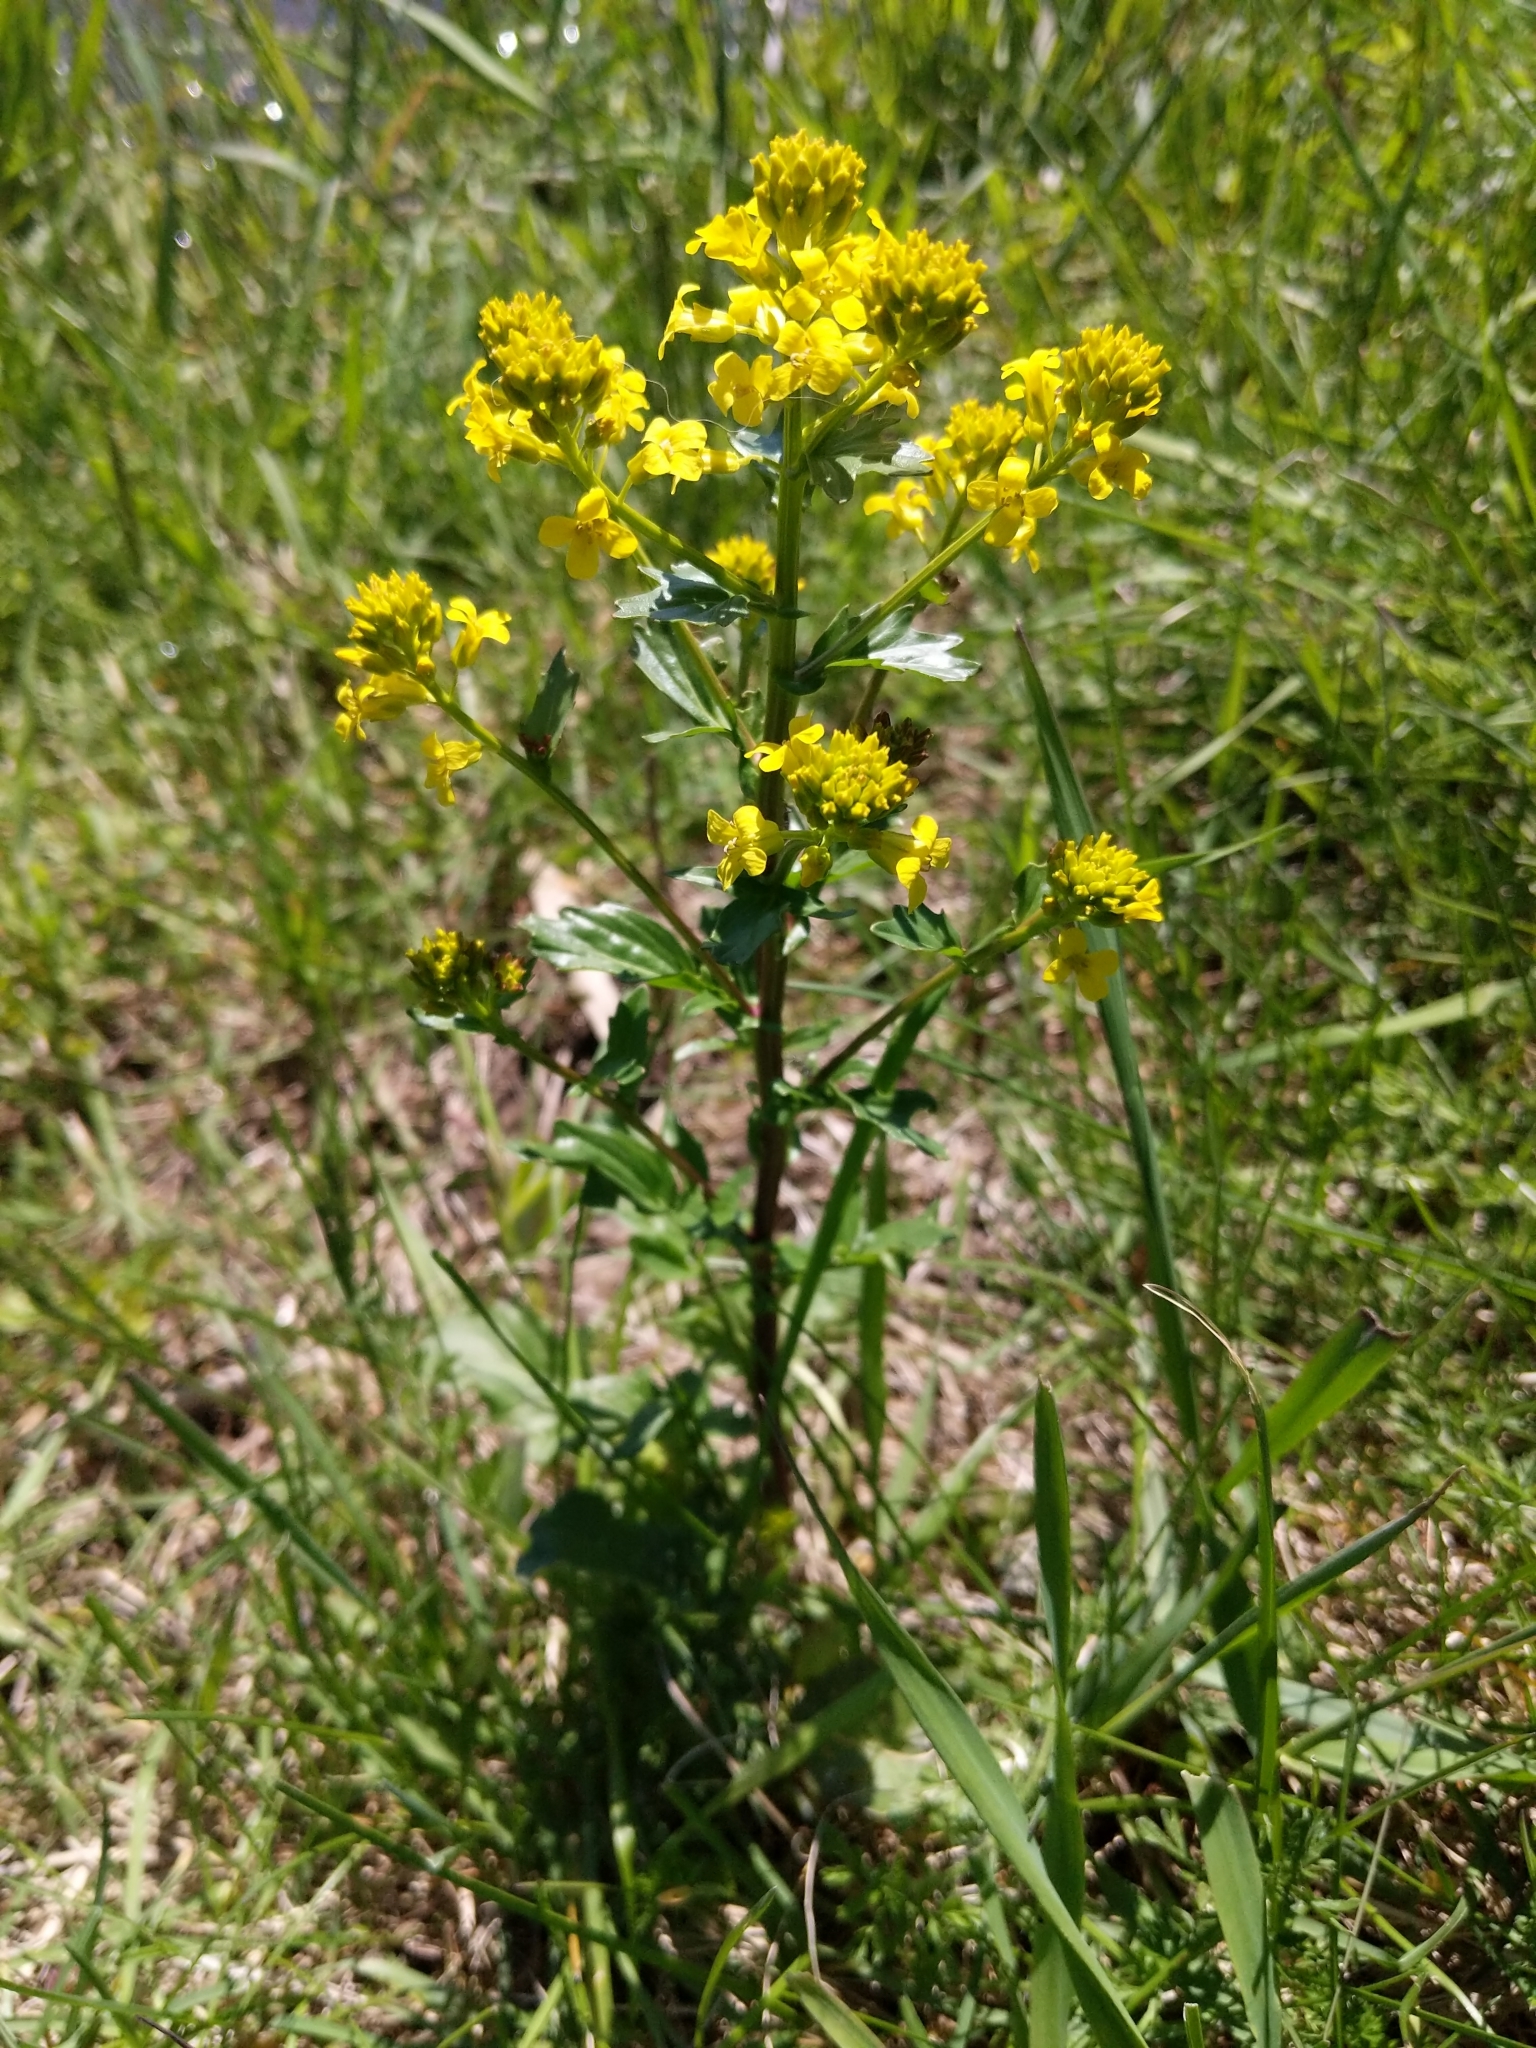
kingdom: Plantae
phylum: Tracheophyta
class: Magnoliopsida
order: Brassicales
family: Brassicaceae
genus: Barbarea
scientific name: Barbarea vulgaris
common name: Cressy-greens
